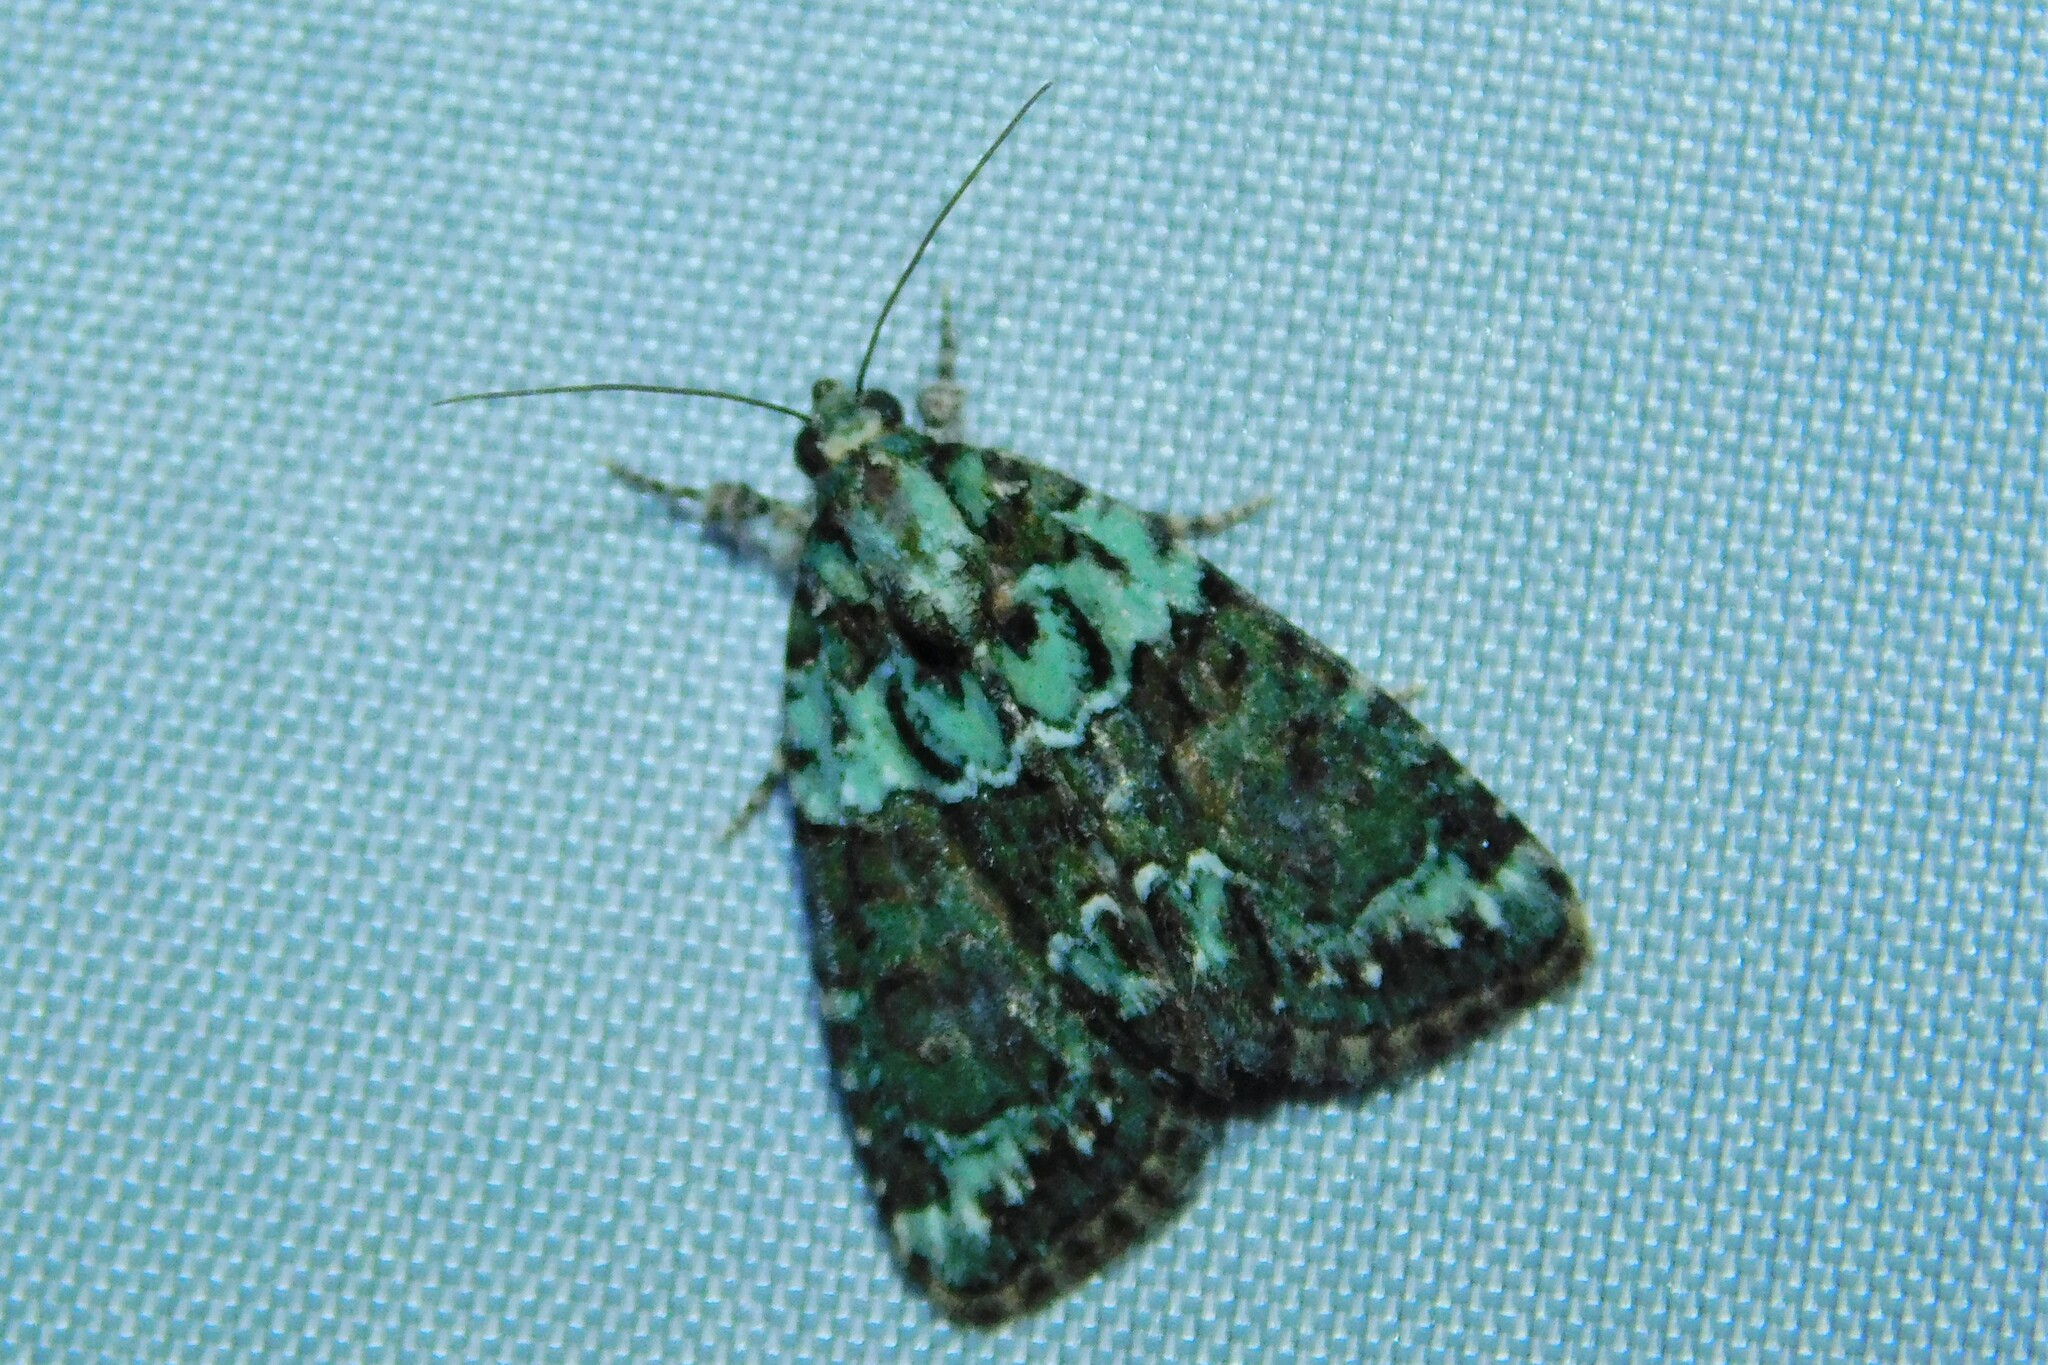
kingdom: Animalia
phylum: Arthropoda
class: Insecta
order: Lepidoptera
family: Noctuidae
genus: Cryphia
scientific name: Cryphia algae
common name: Tree-lichen beauty
